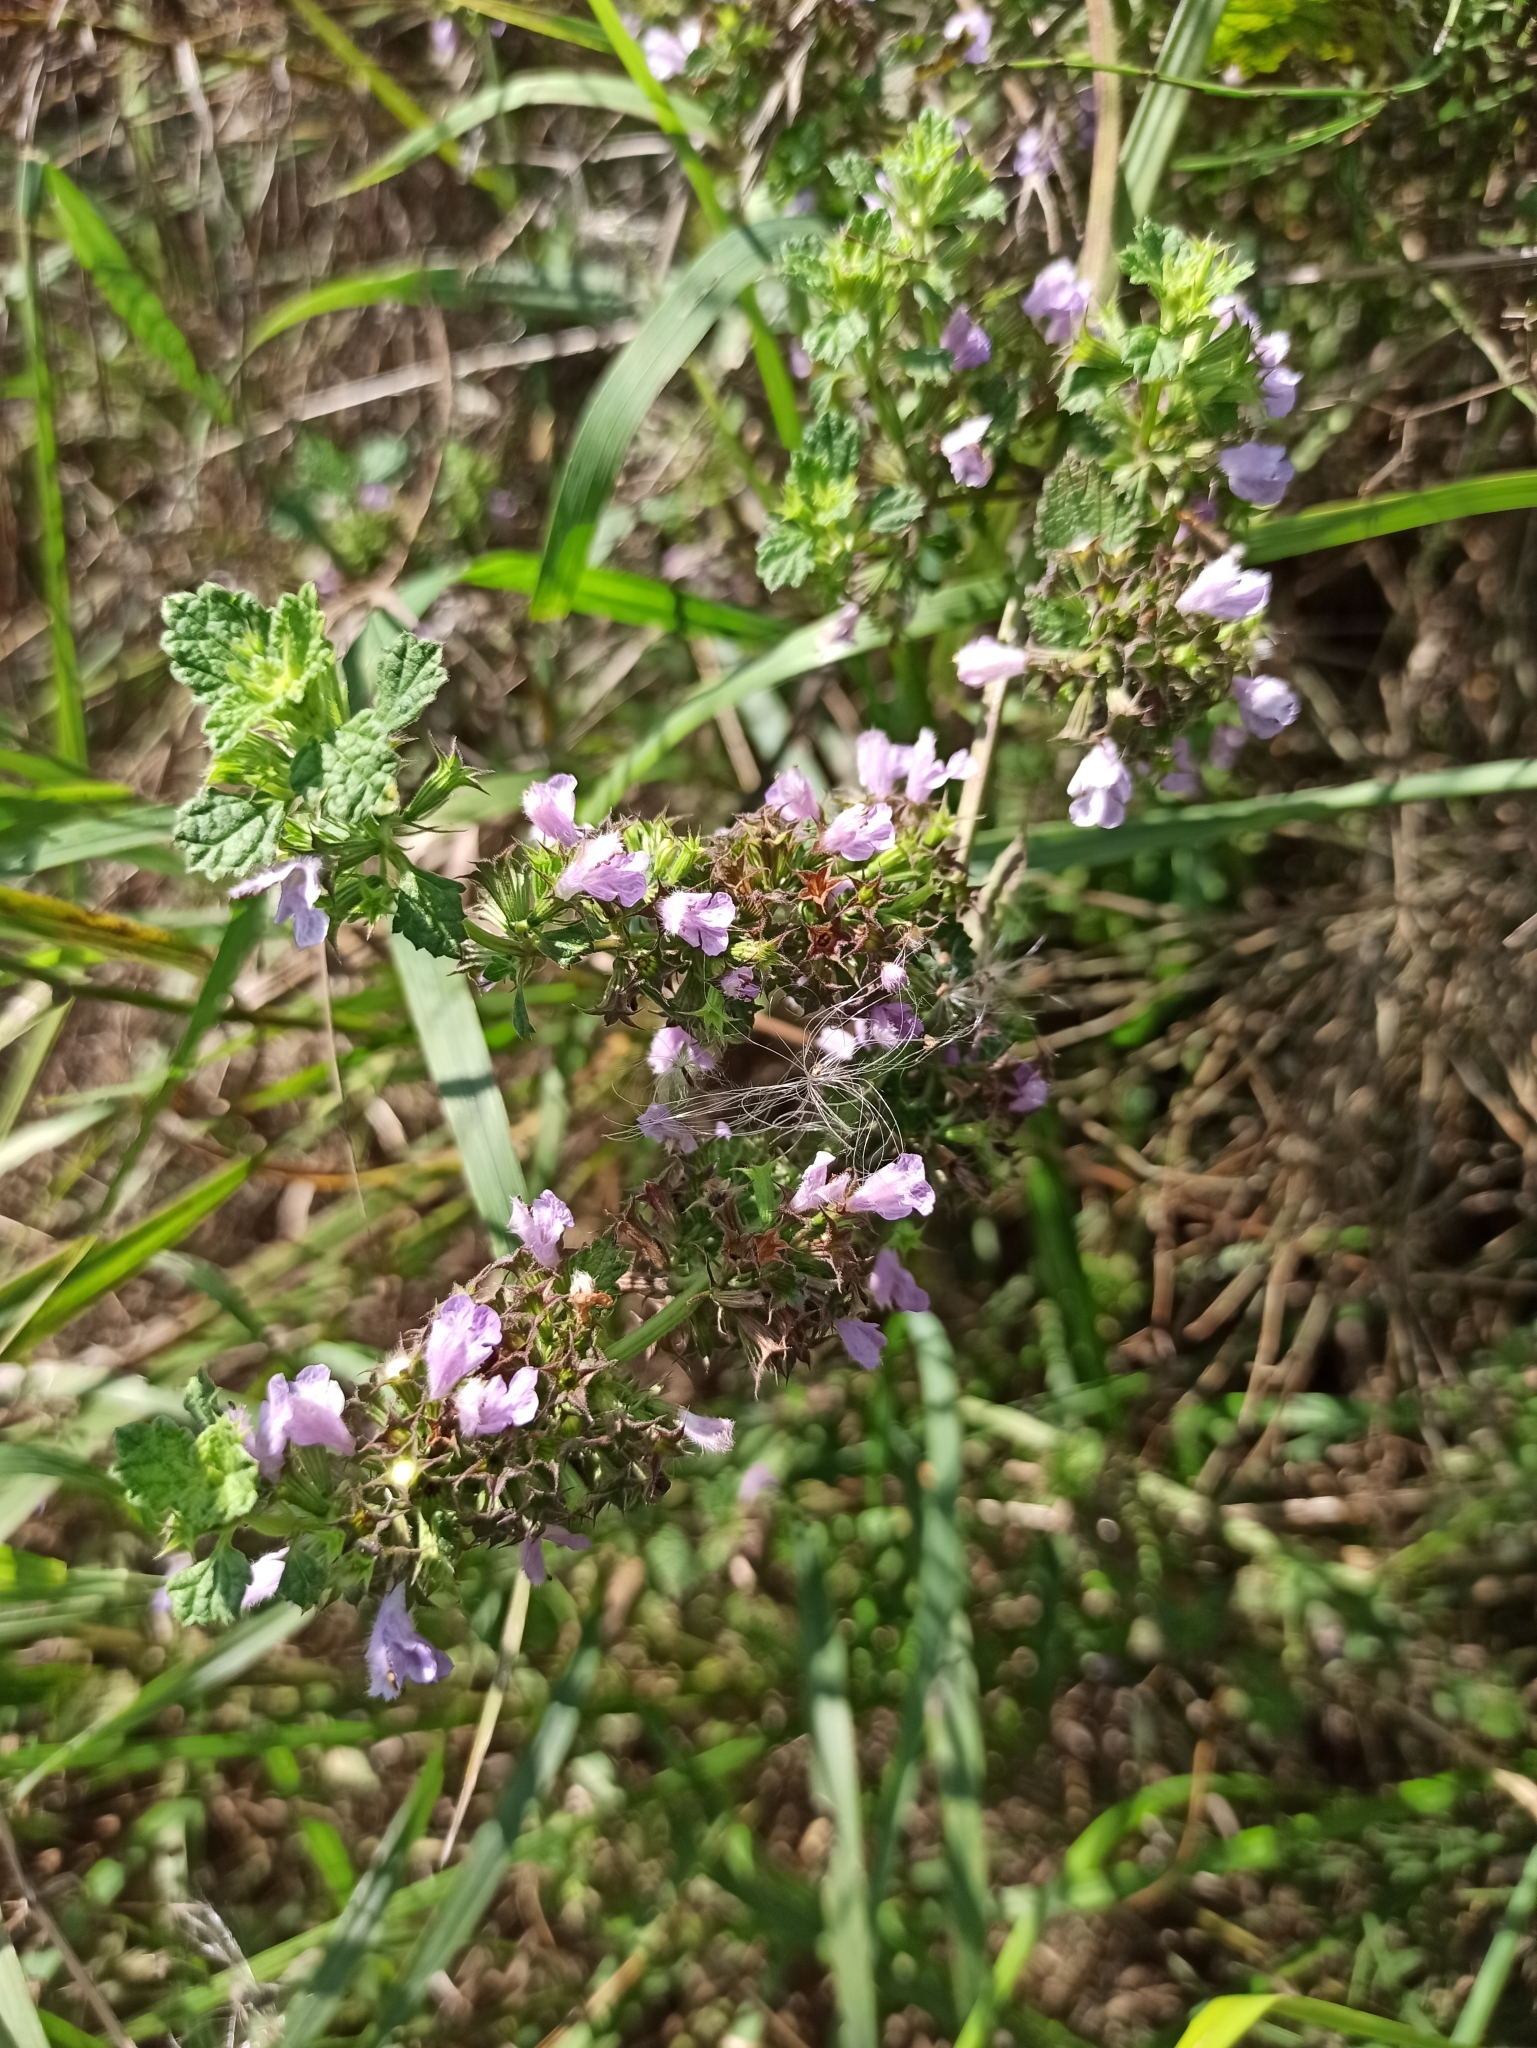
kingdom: Plantae
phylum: Tracheophyta
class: Magnoliopsida
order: Lamiales
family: Lamiaceae
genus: Ballota
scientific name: Ballota nigra
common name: Black horehound
